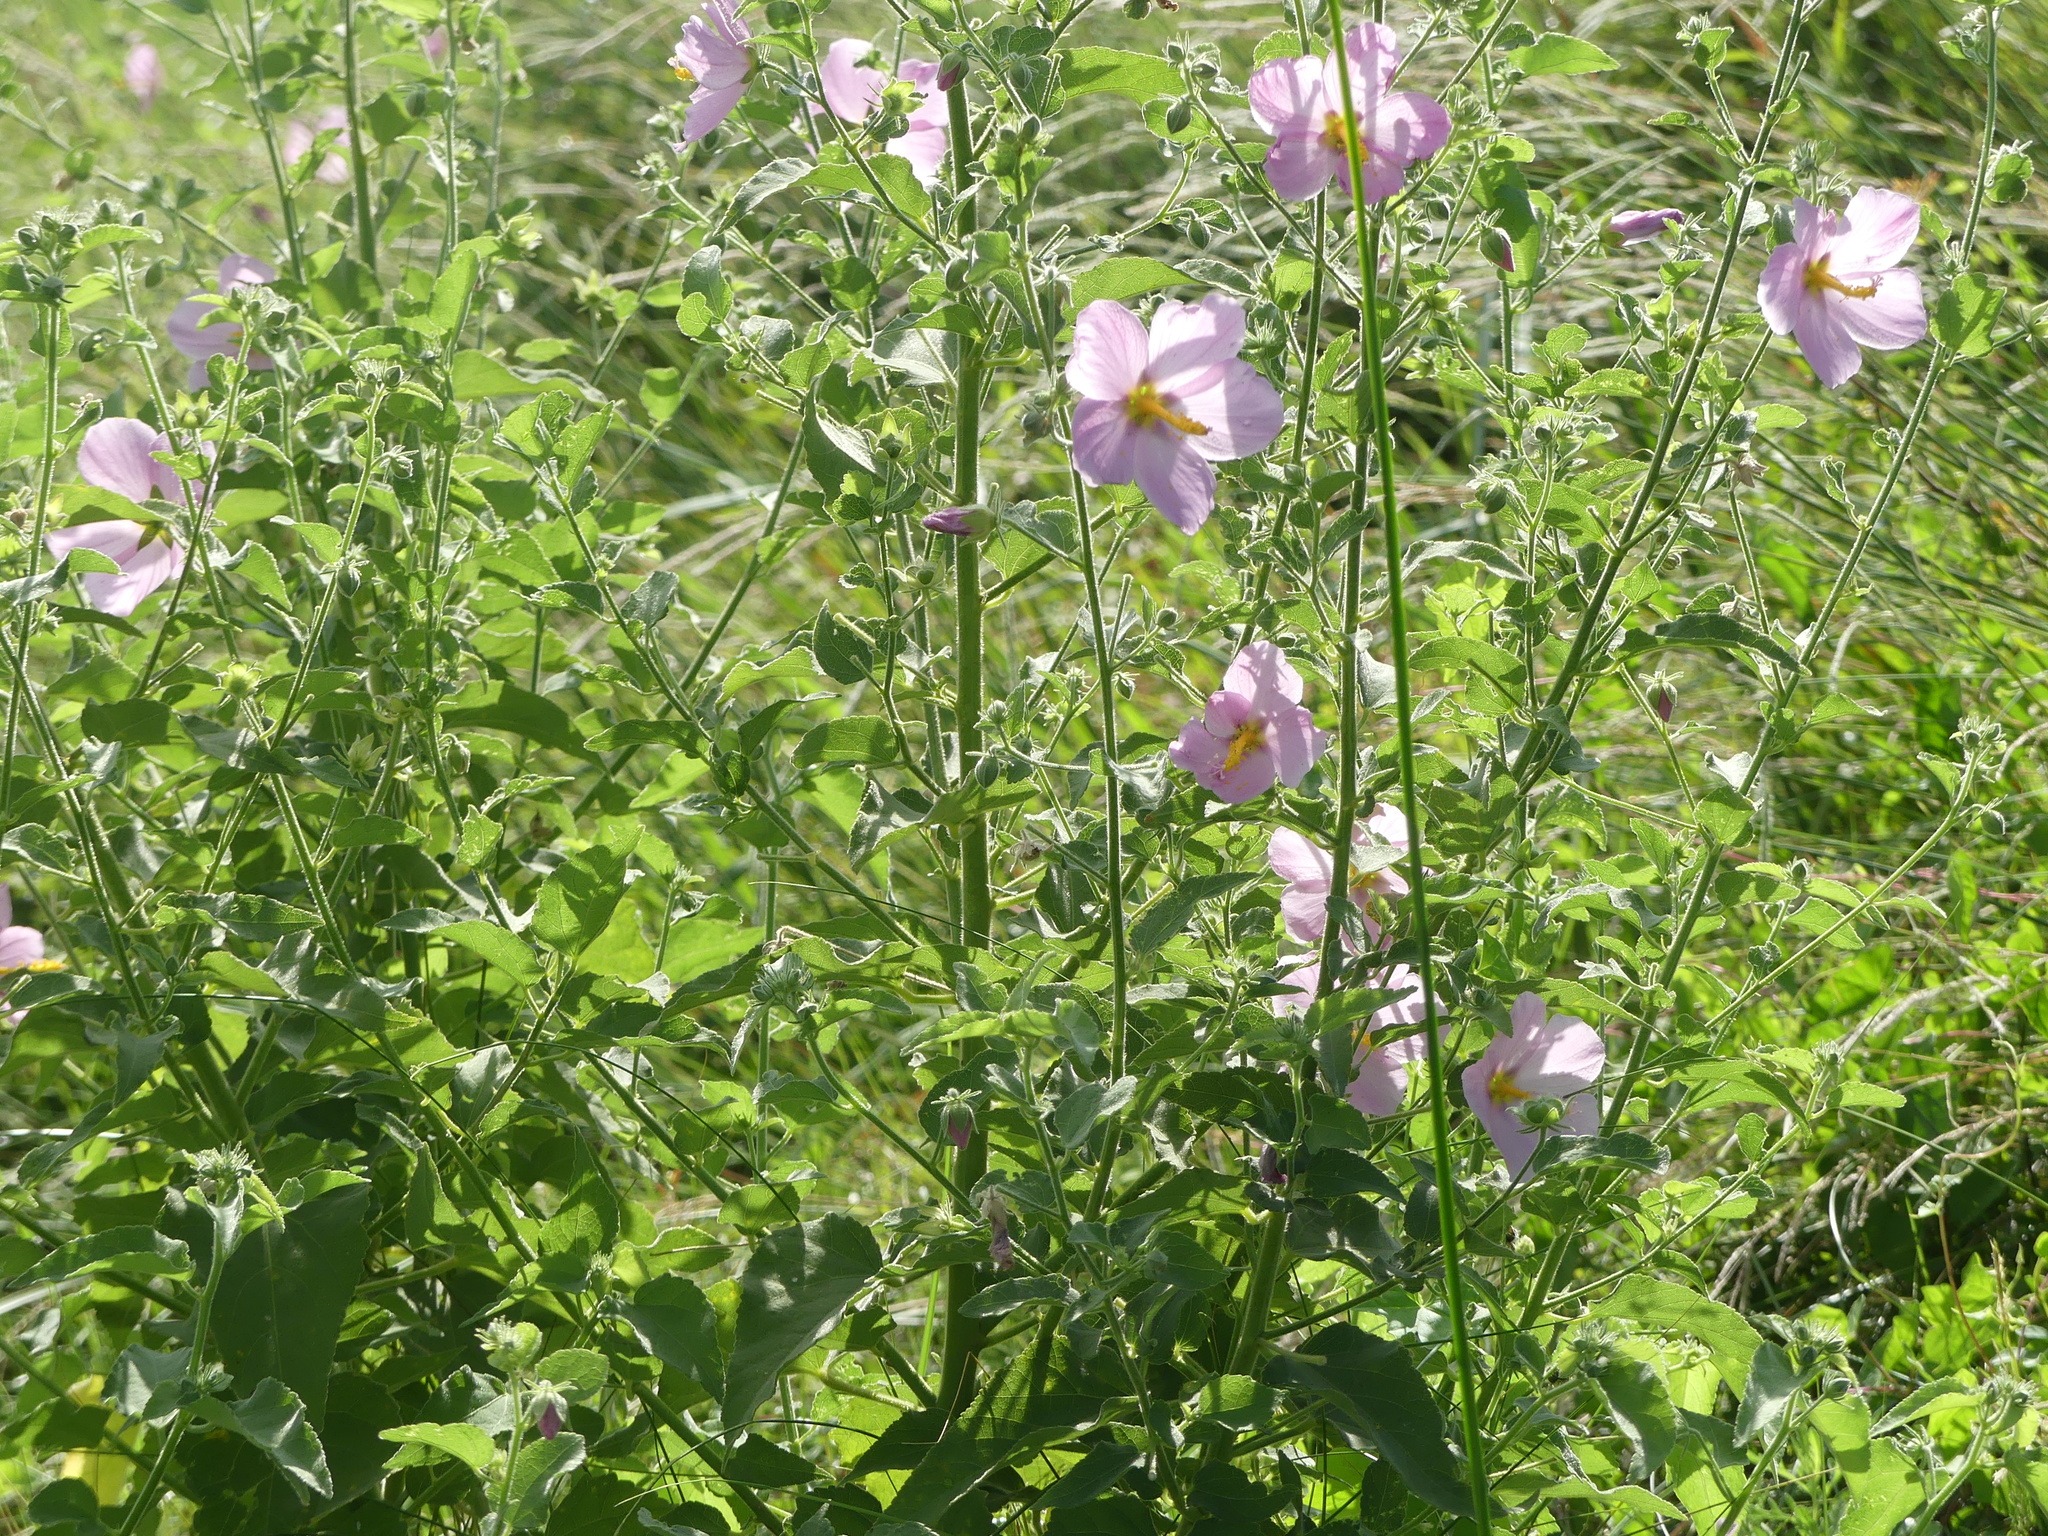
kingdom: Plantae
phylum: Tracheophyta
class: Magnoliopsida
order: Malvales
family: Malvaceae
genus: Kosteletzkya
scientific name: Kosteletzkya pentacarpos
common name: Virginia saltmarsh mallow
